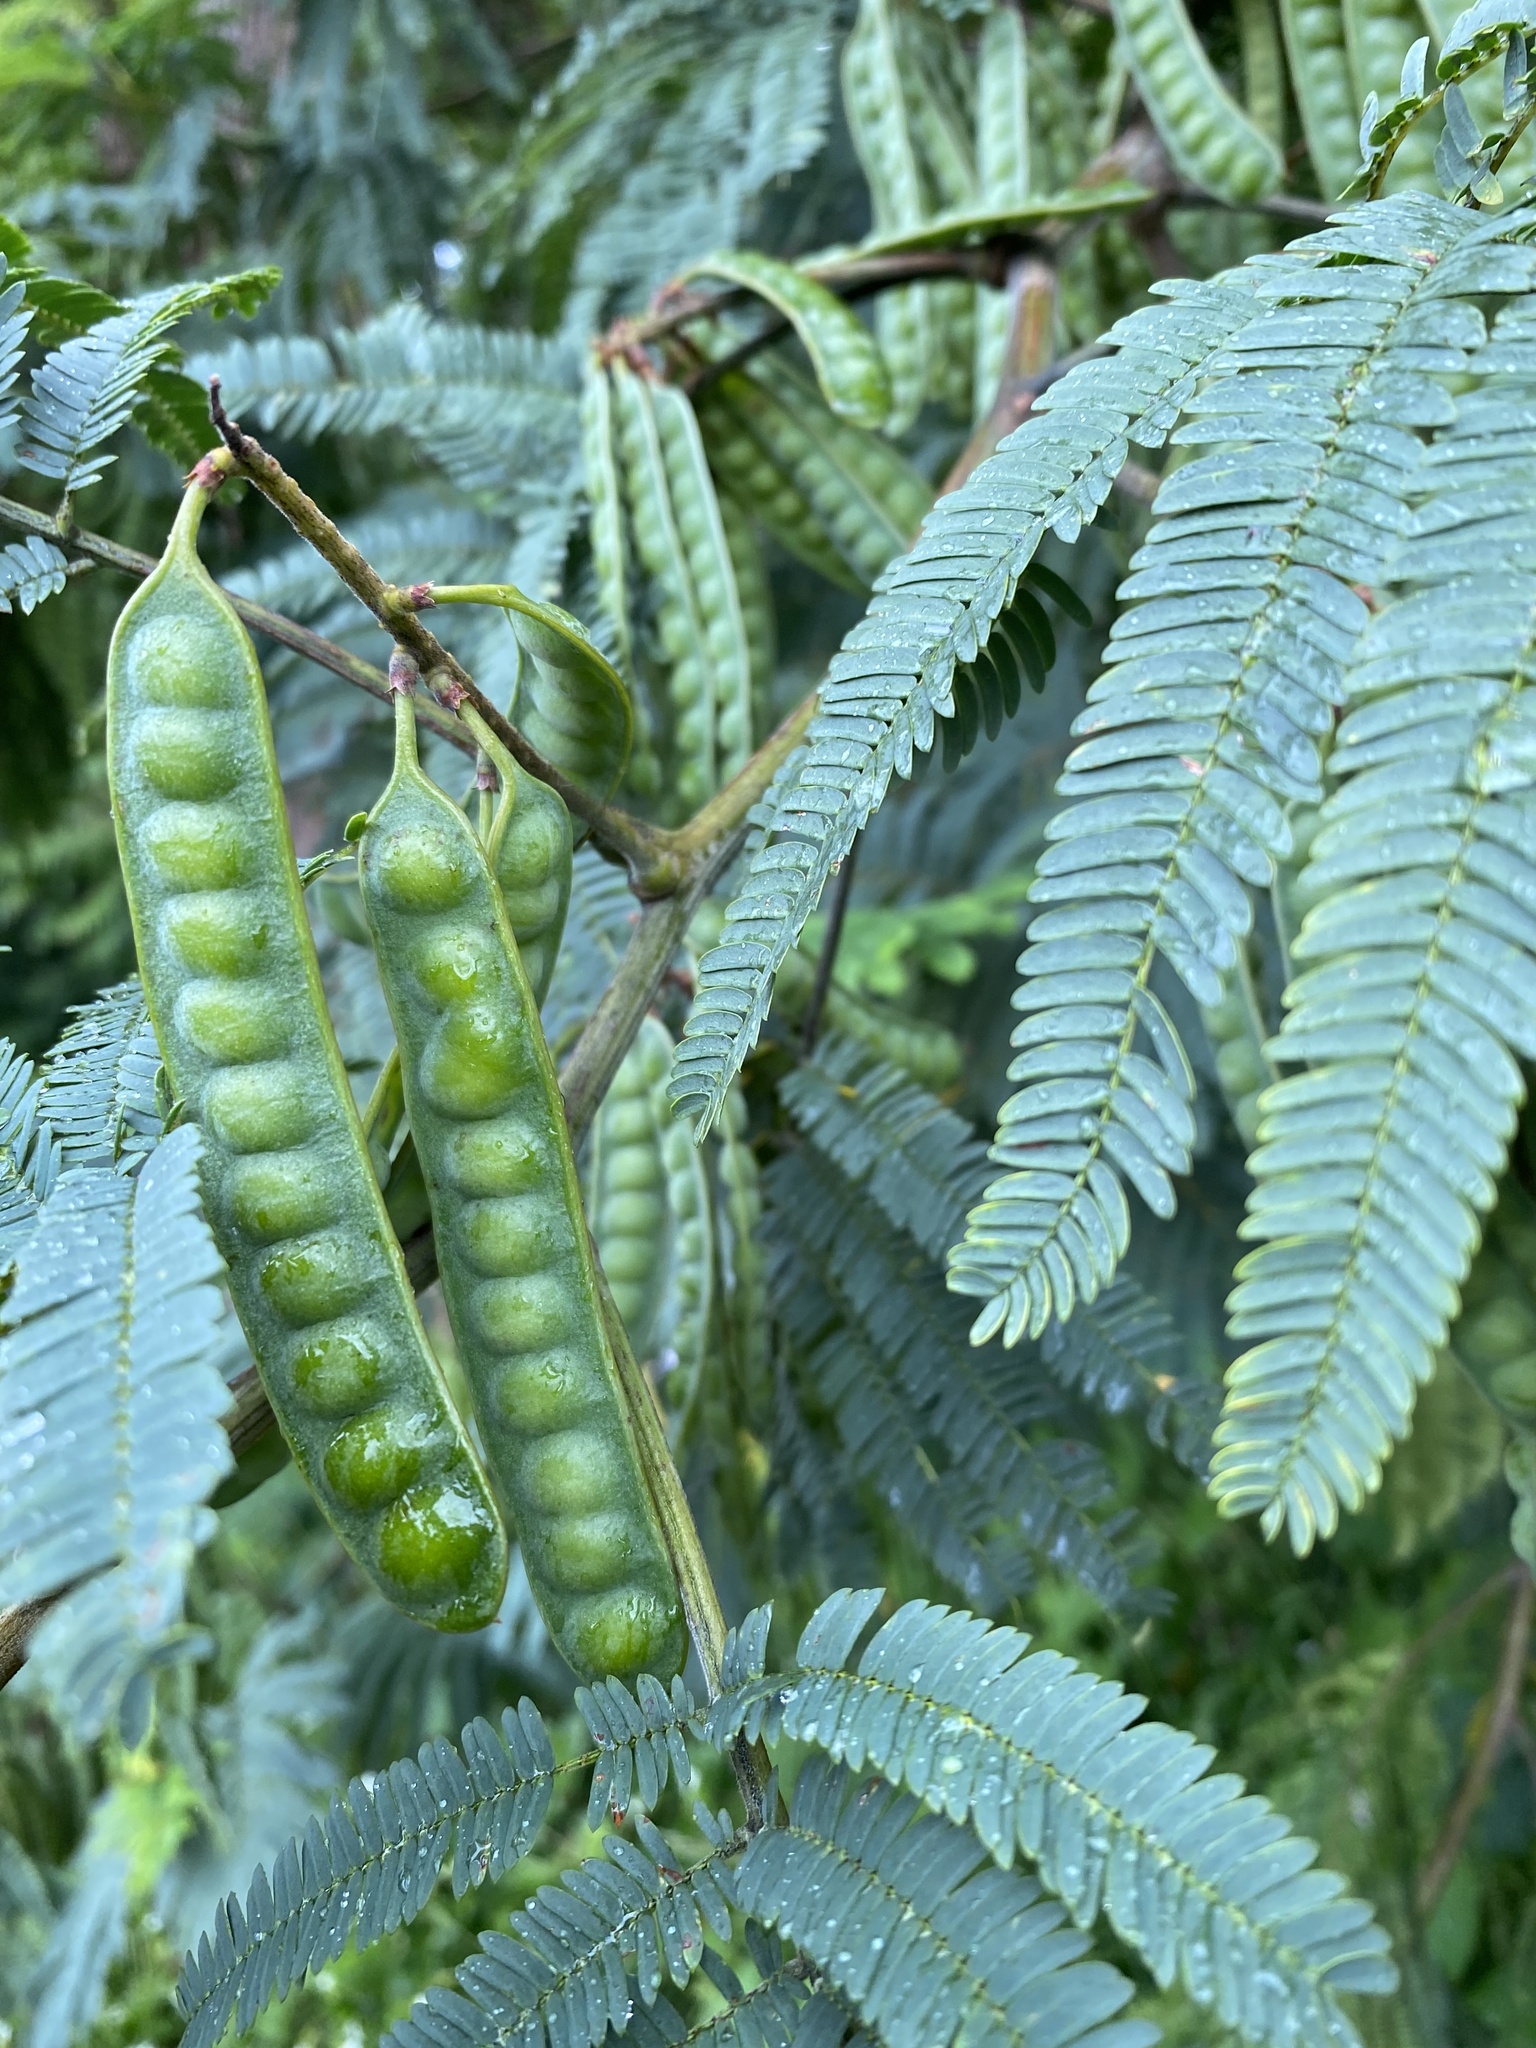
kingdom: Plantae
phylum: Tracheophyta
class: Magnoliopsida
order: Fabales
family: Fabaceae
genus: Paraserianthes
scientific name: Paraserianthes lophantha
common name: Plume albizia
